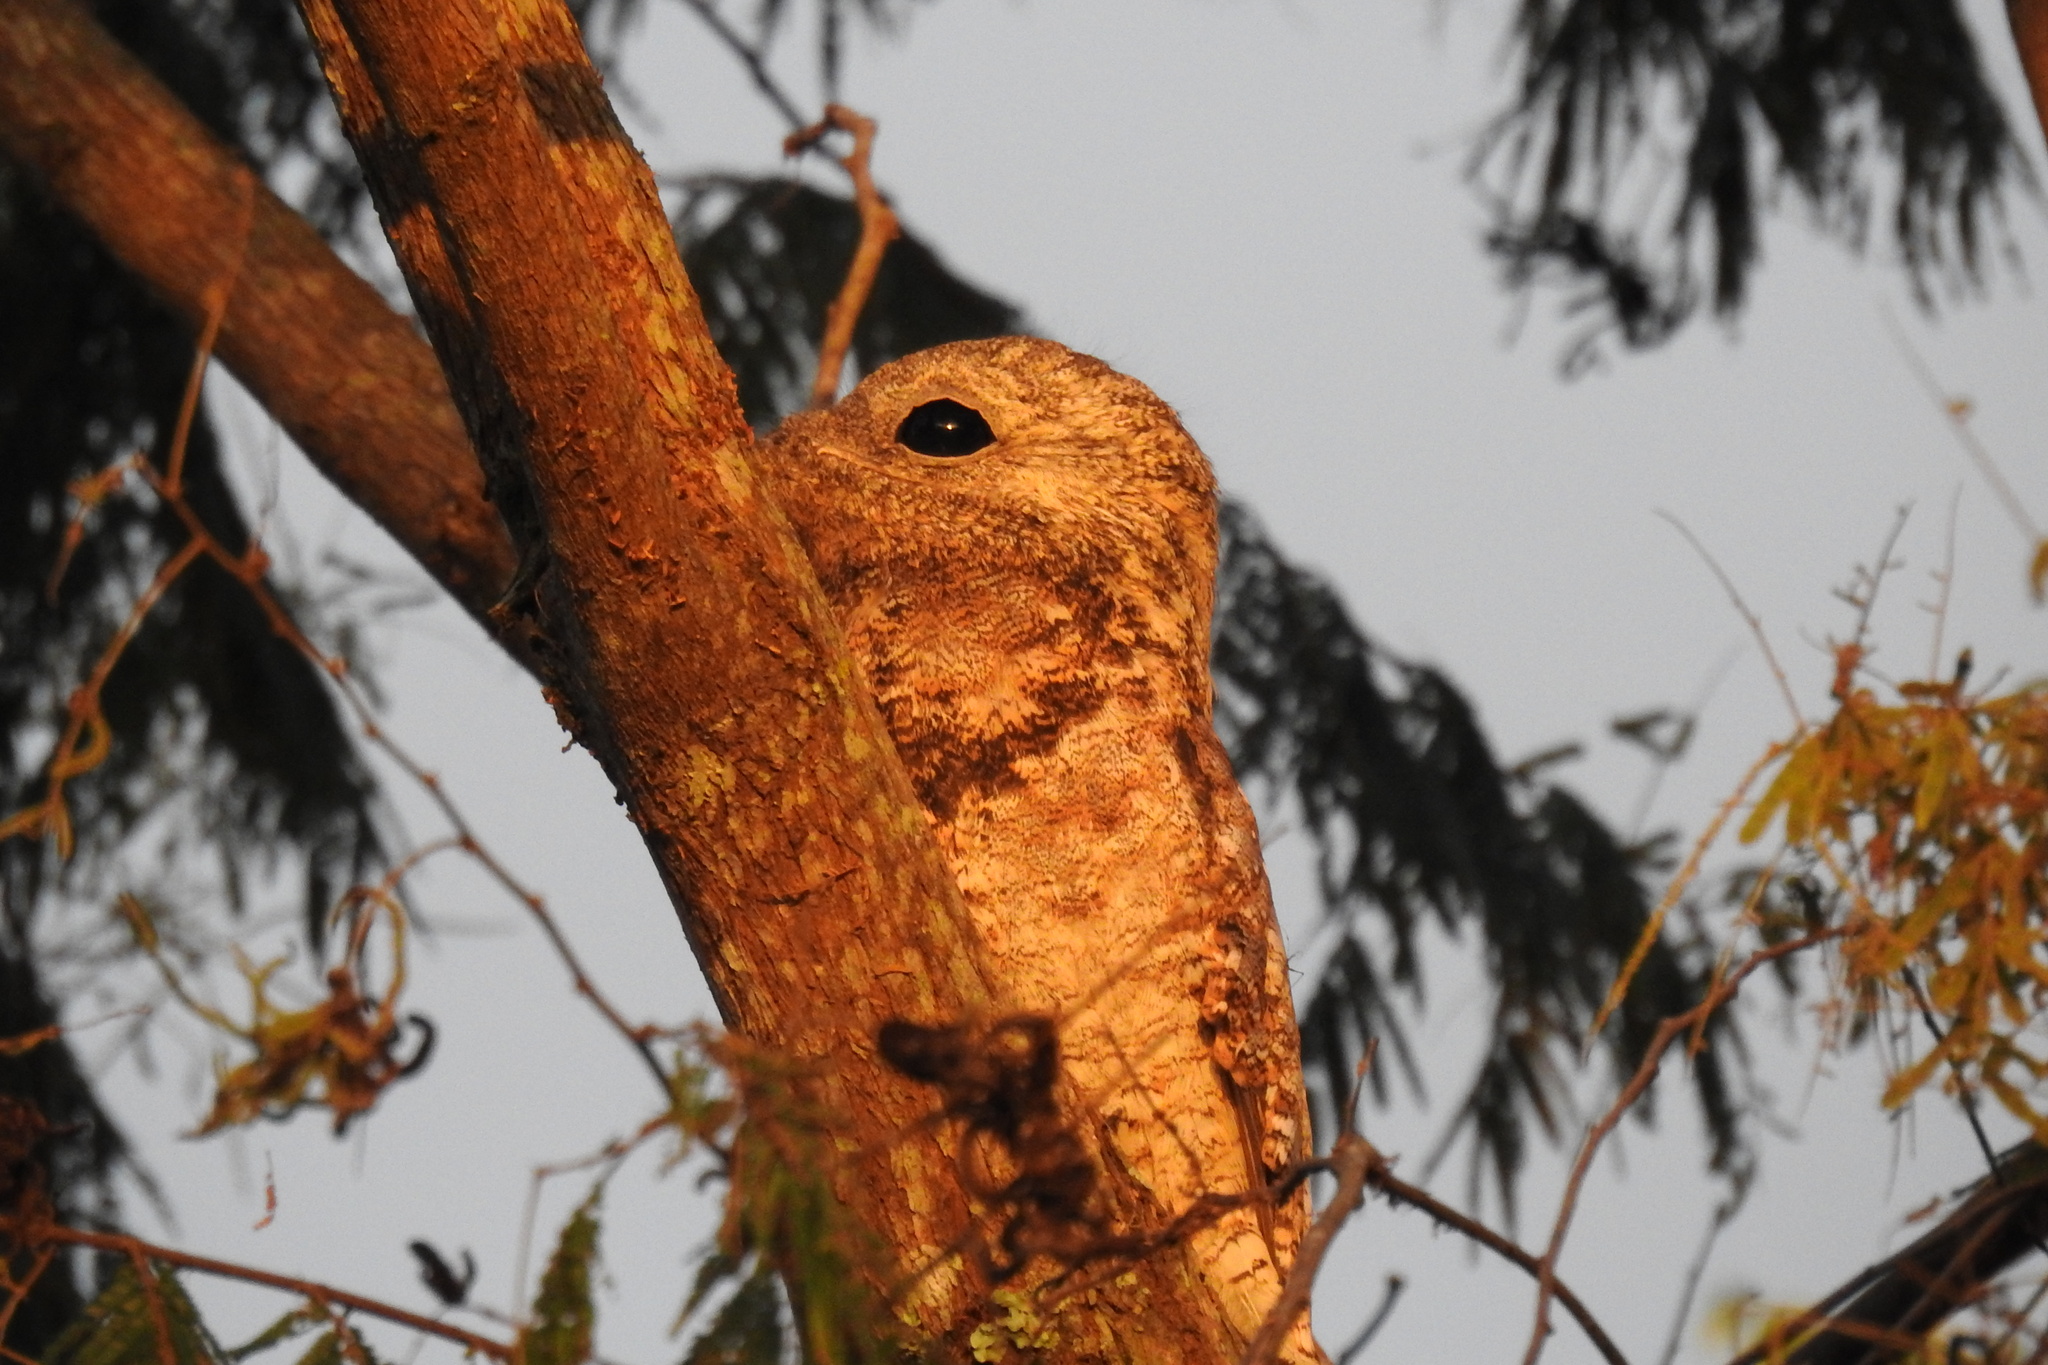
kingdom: Animalia
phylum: Chordata
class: Aves
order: Nyctibiiformes
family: Nyctibiidae
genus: Nyctibius
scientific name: Nyctibius grandis
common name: Great potoo
